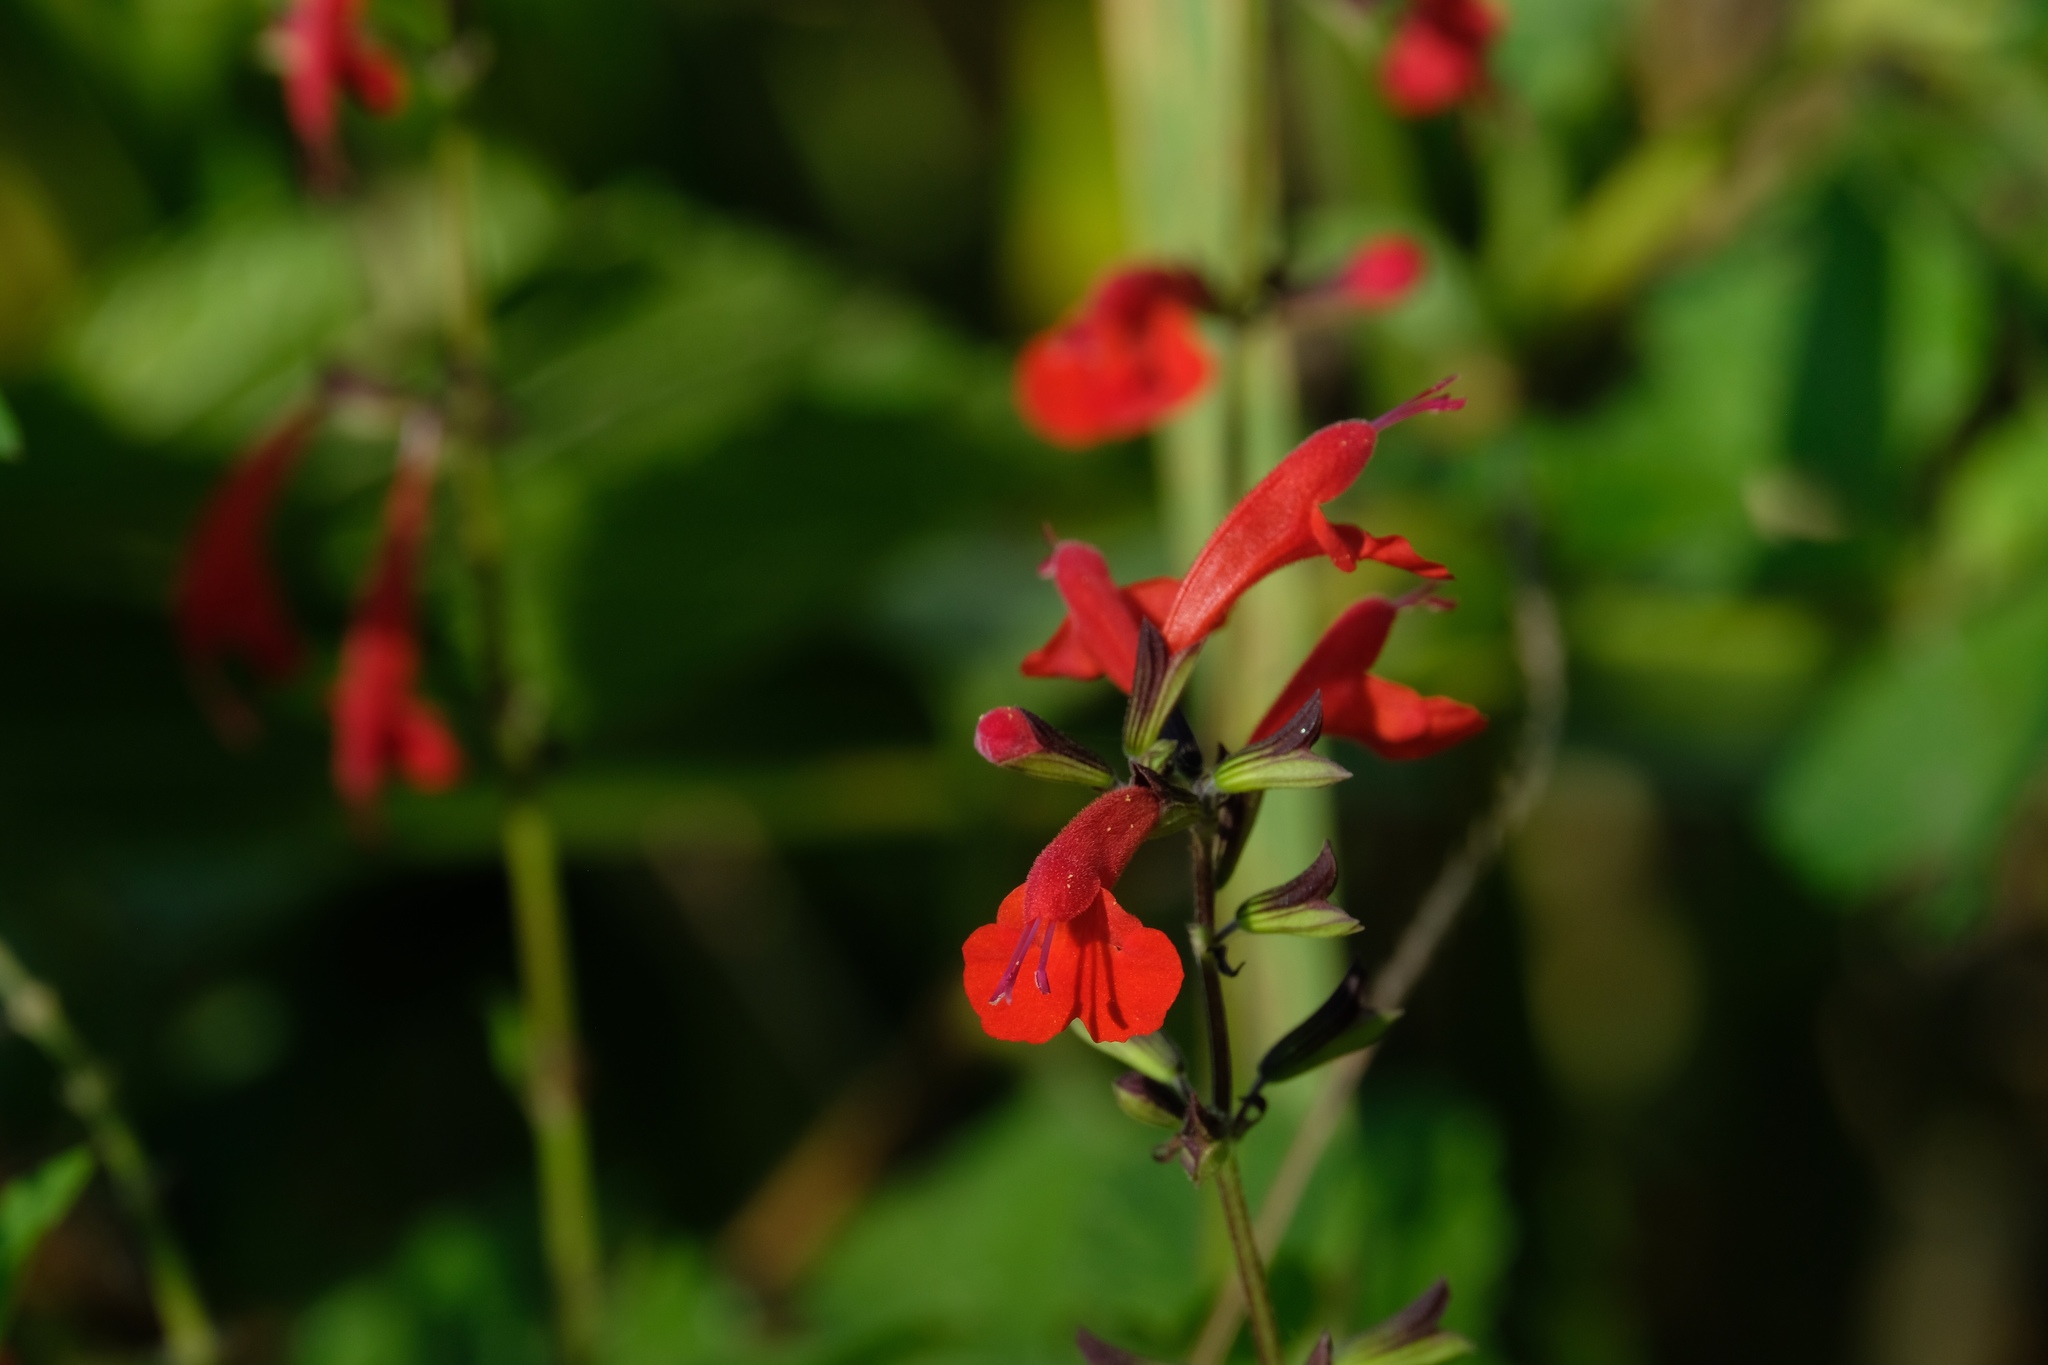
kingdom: Plantae
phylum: Tracheophyta
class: Magnoliopsida
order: Lamiales
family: Lamiaceae
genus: Salvia
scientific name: Salvia coccinea
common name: Blood sage
